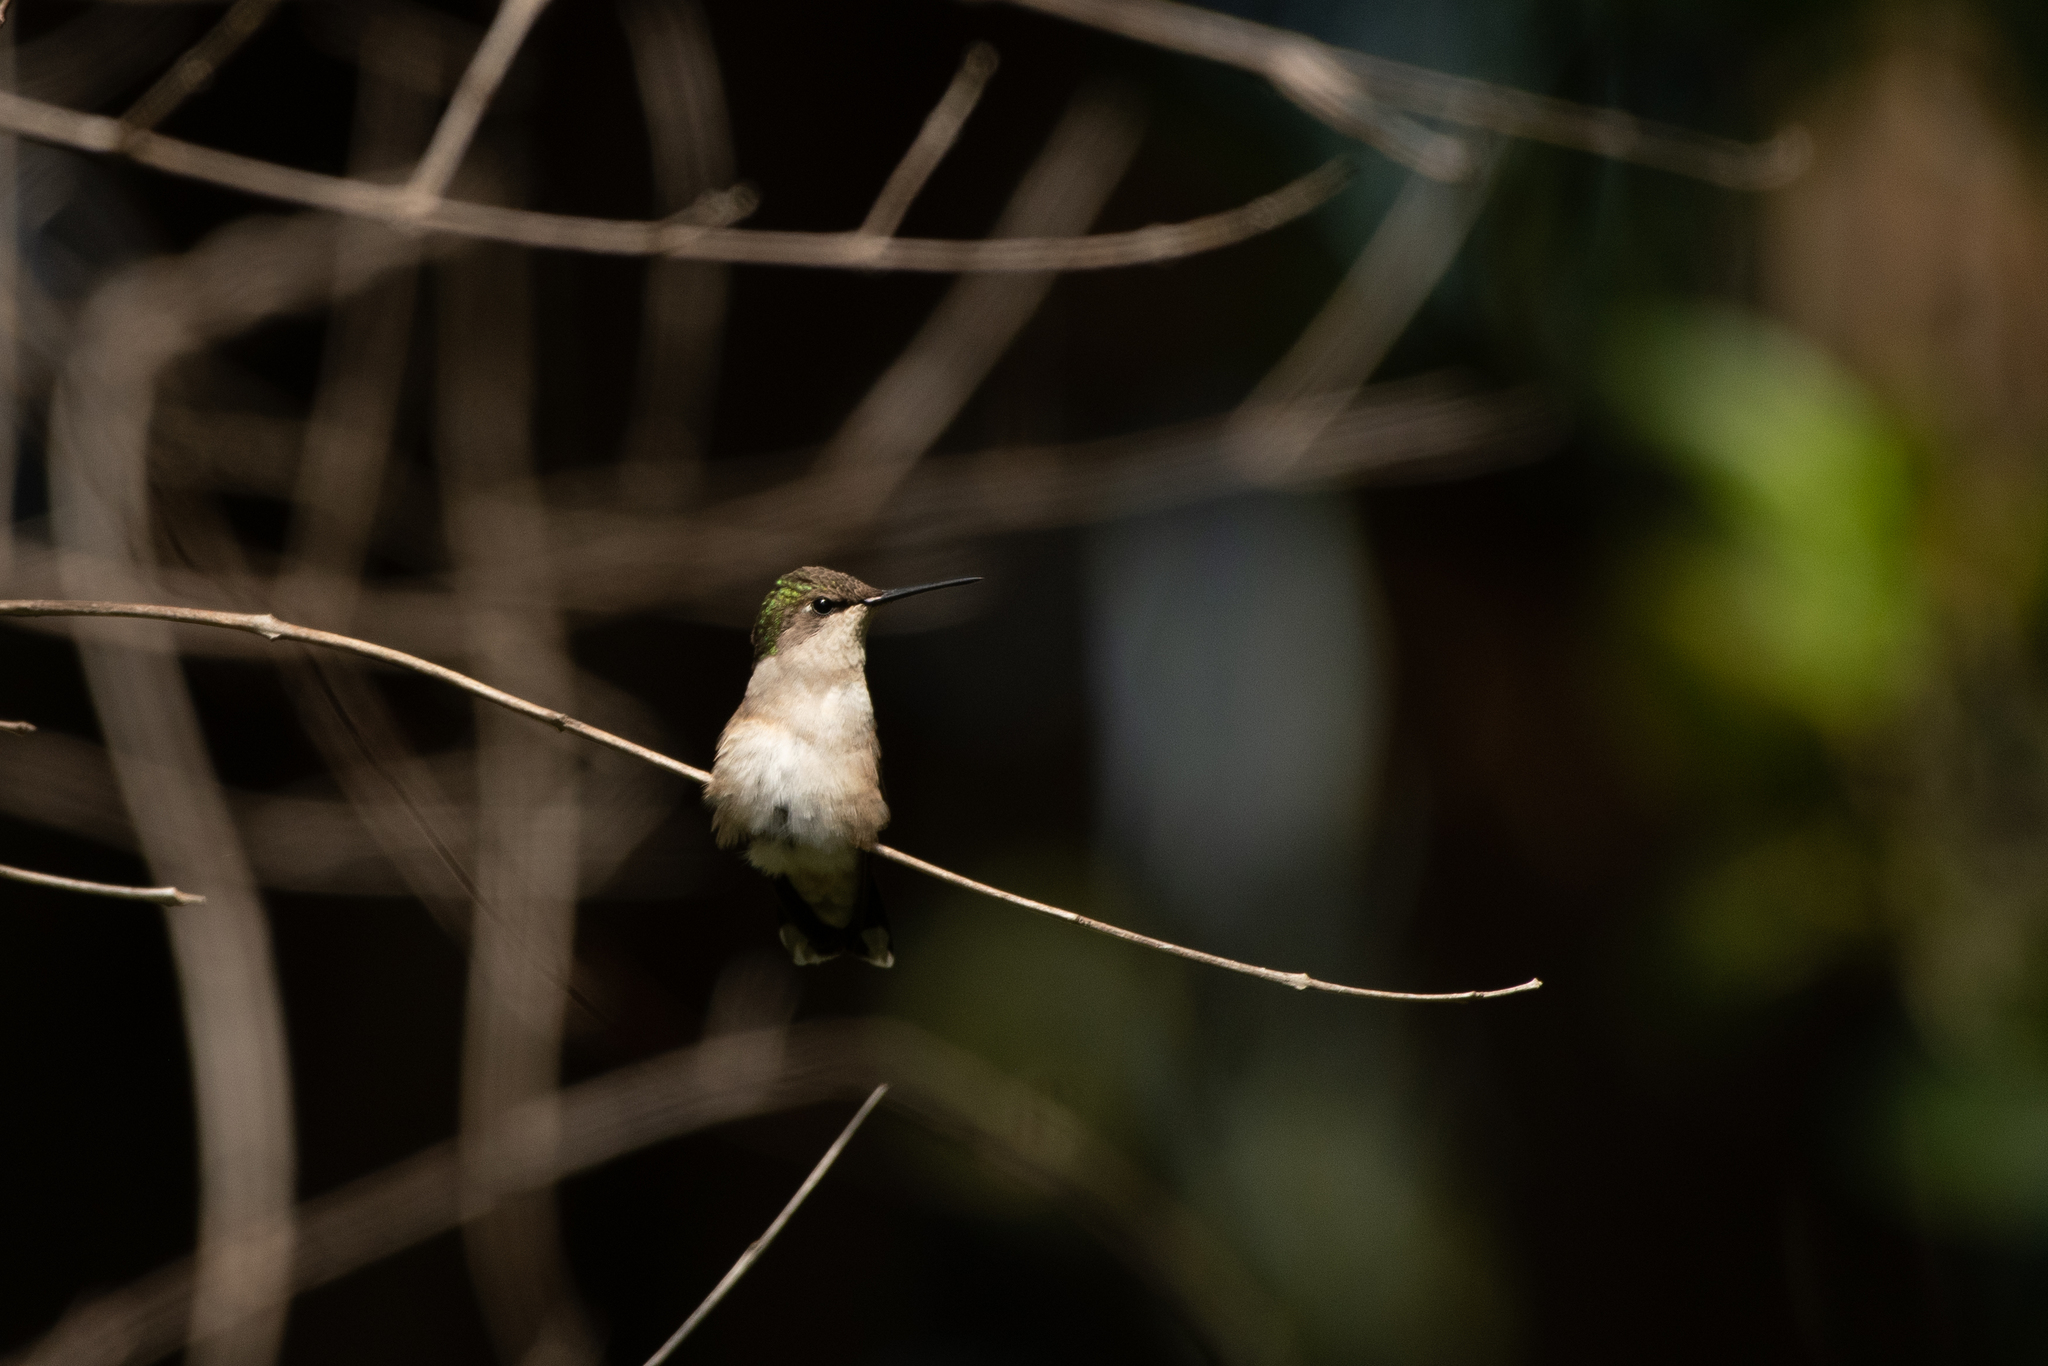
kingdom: Animalia
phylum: Chordata
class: Aves
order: Apodiformes
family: Trochilidae
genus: Archilochus
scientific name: Archilochus colubris
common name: Ruby-throated hummingbird
